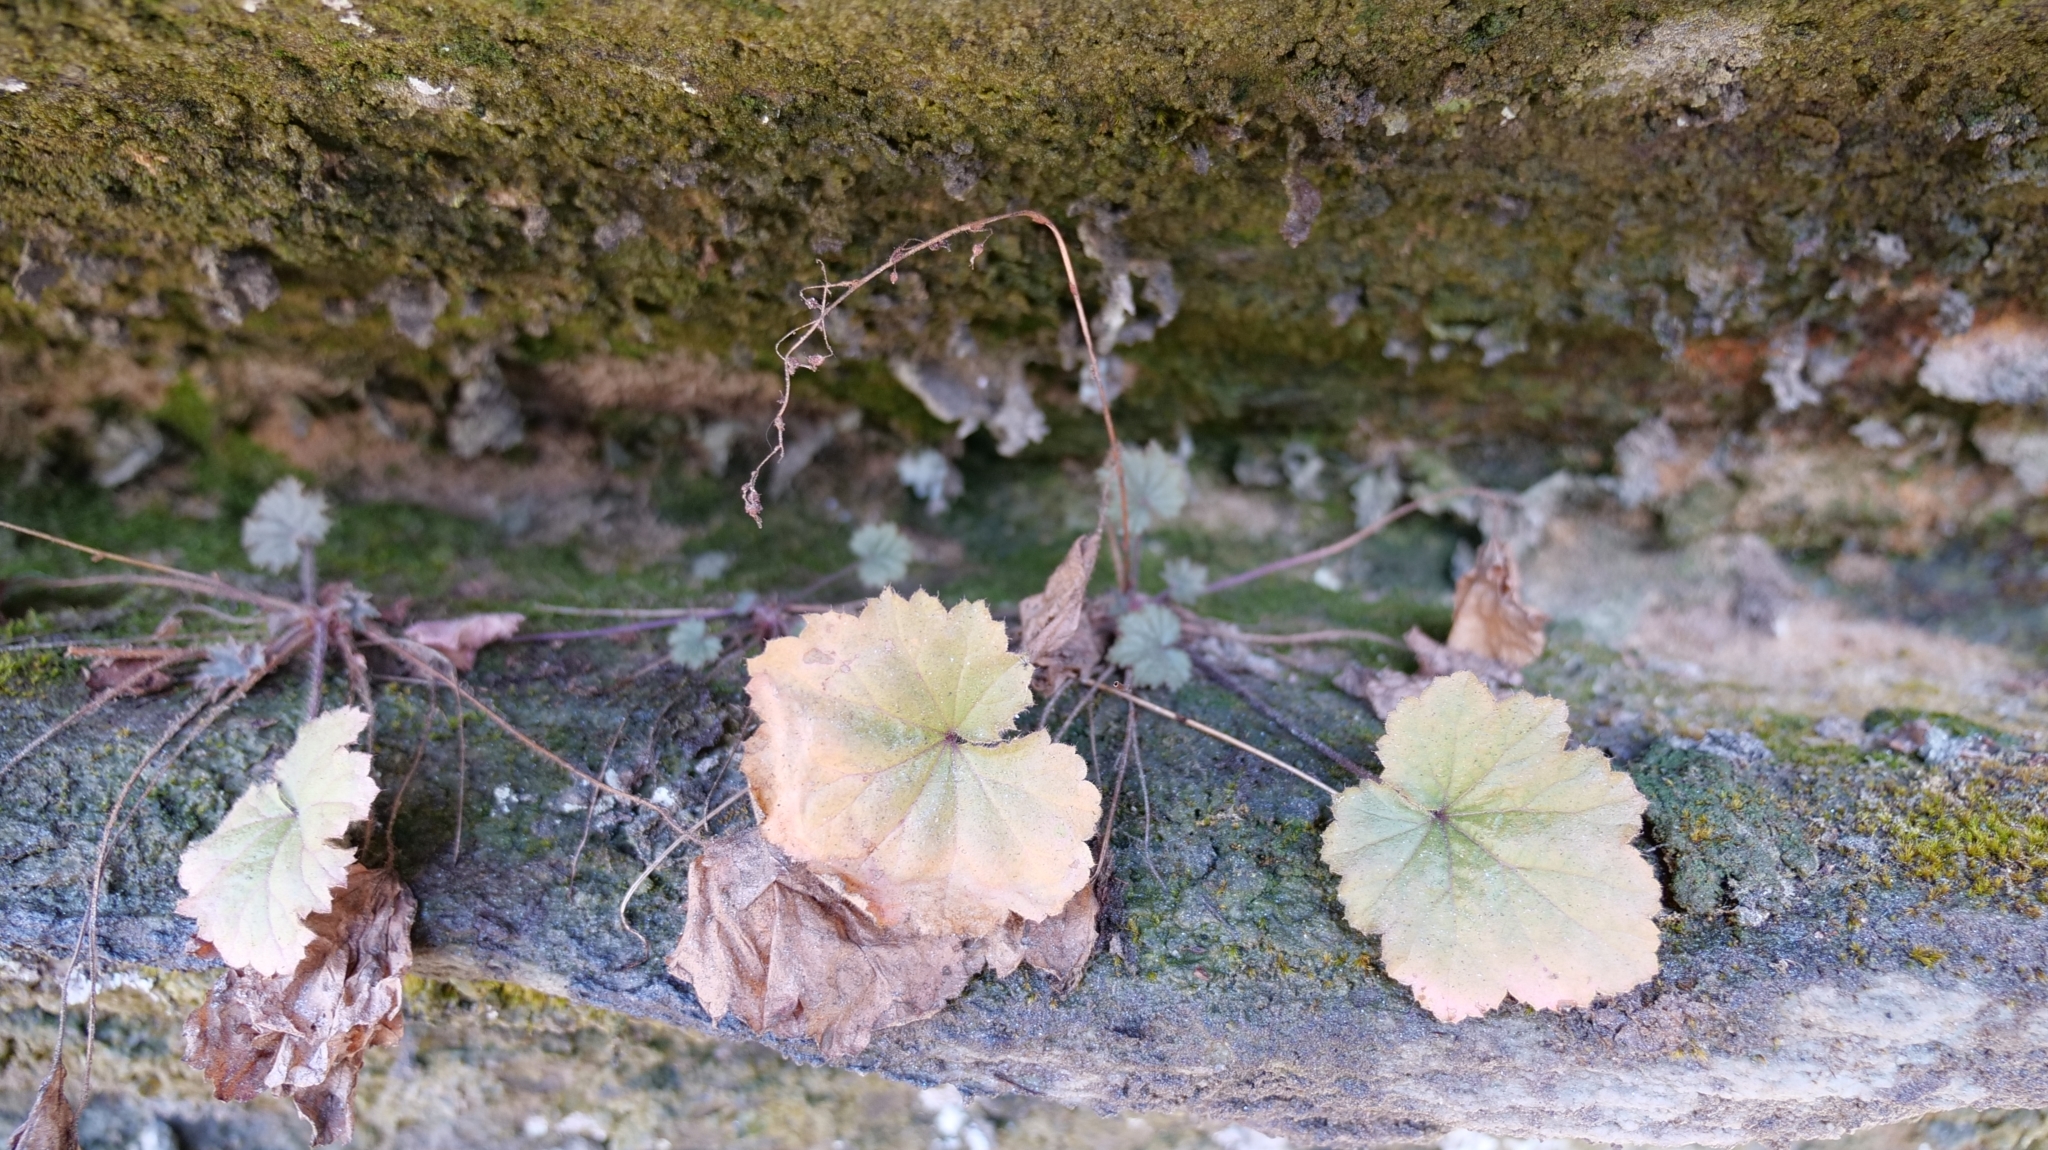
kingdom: Plantae
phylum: Tracheophyta
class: Magnoliopsida
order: Saxifragales
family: Saxifragaceae
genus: Heuchera
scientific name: Heuchera parviflora
